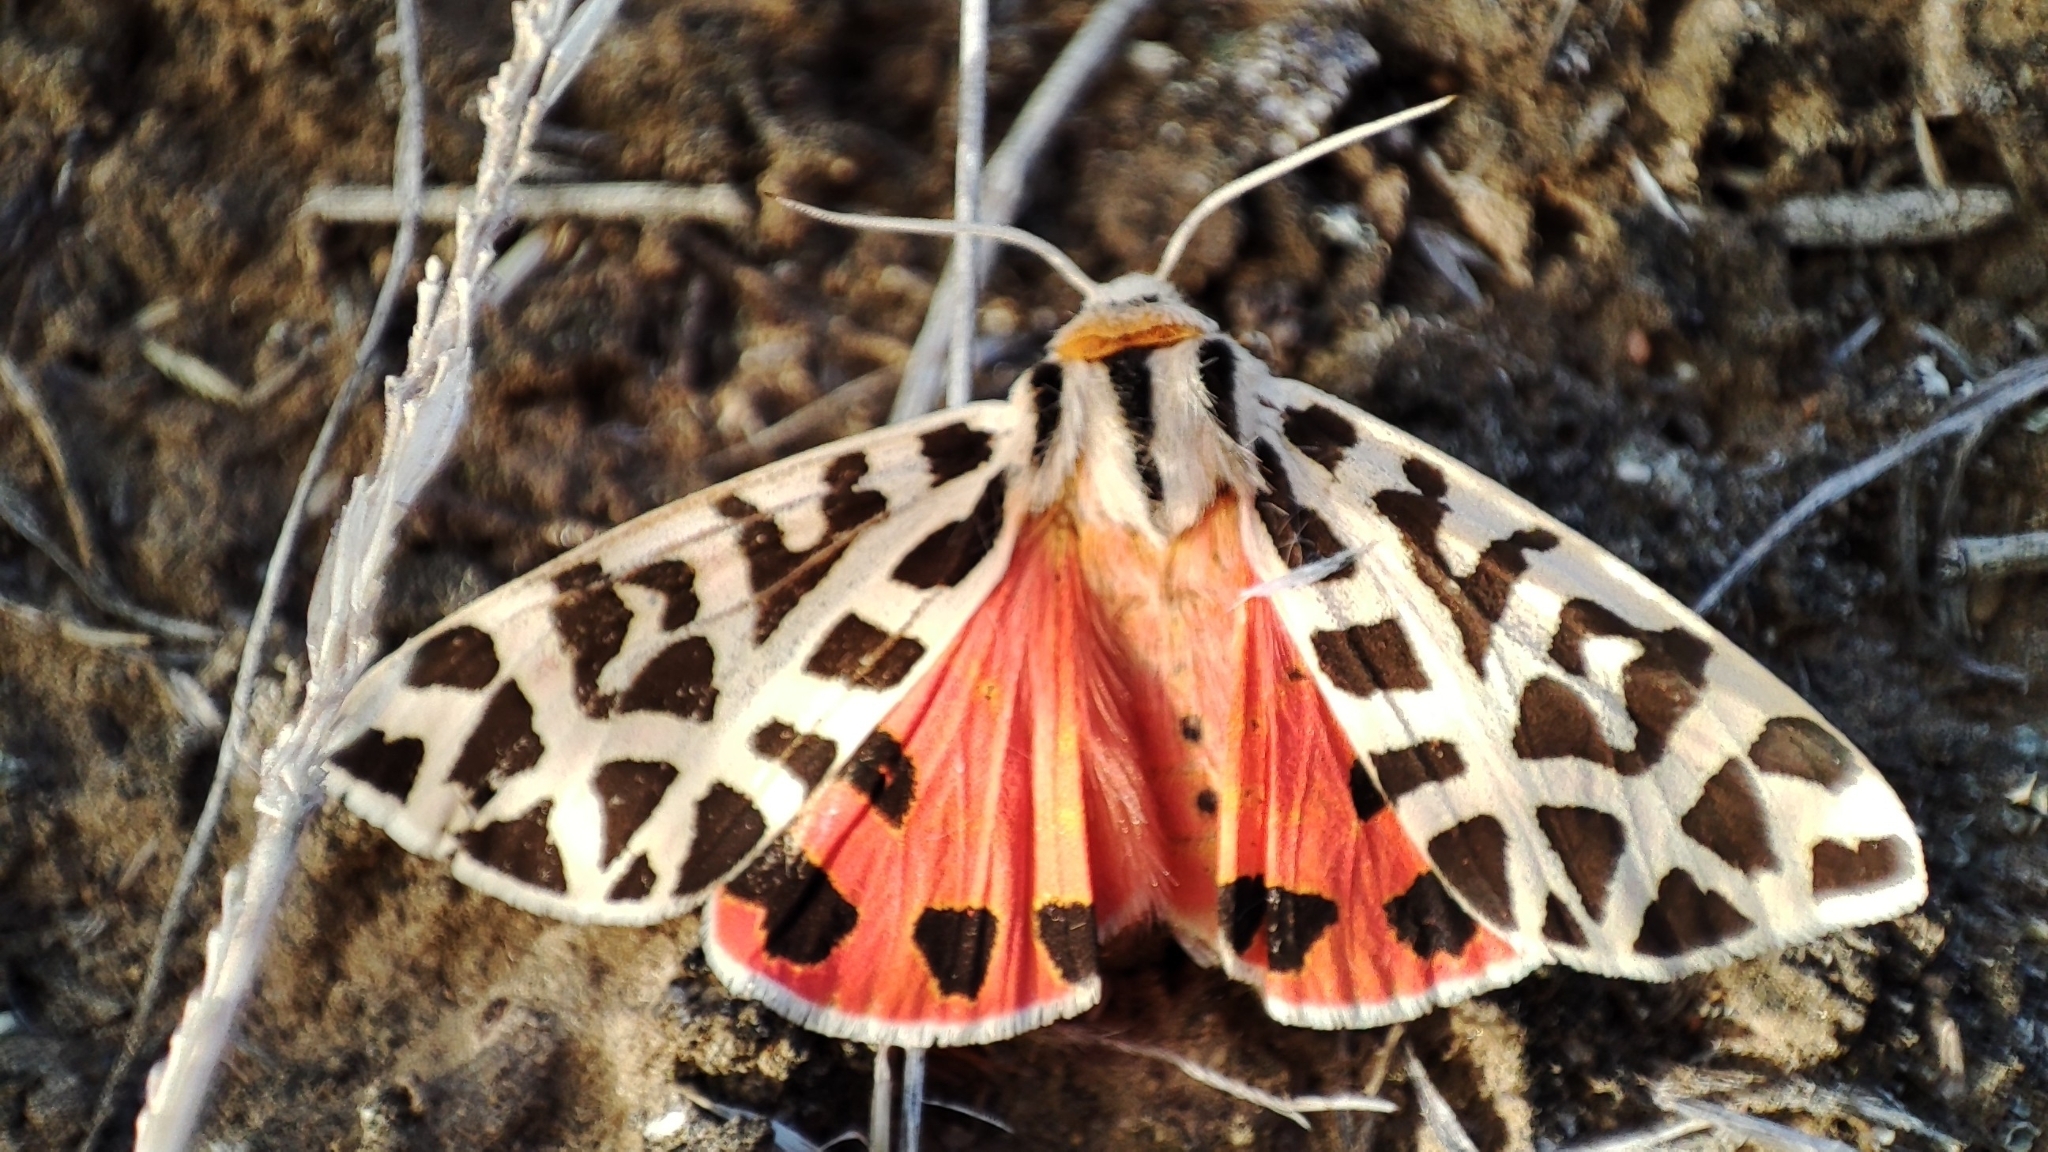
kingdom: Animalia
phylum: Arthropoda
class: Insecta
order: Lepidoptera
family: Erebidae
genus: Palearctia
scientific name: Palearctia
